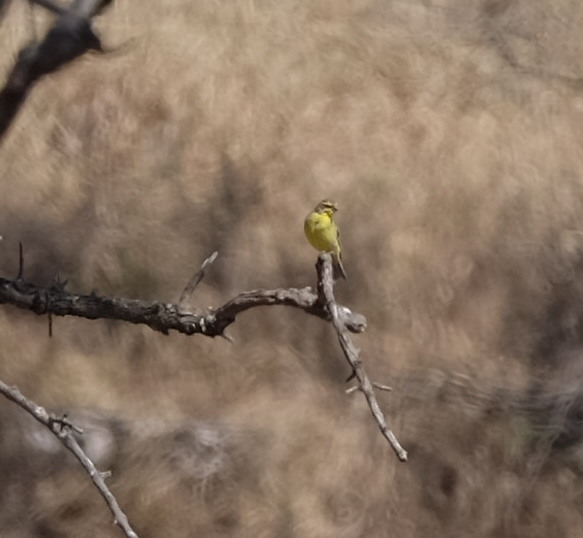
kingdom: Animalia
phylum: Chordata
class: Aves
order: Passeriformes
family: Fringillidae
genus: Crithagra
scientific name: Crithagra mozambica
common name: Yellow-fronted canary
